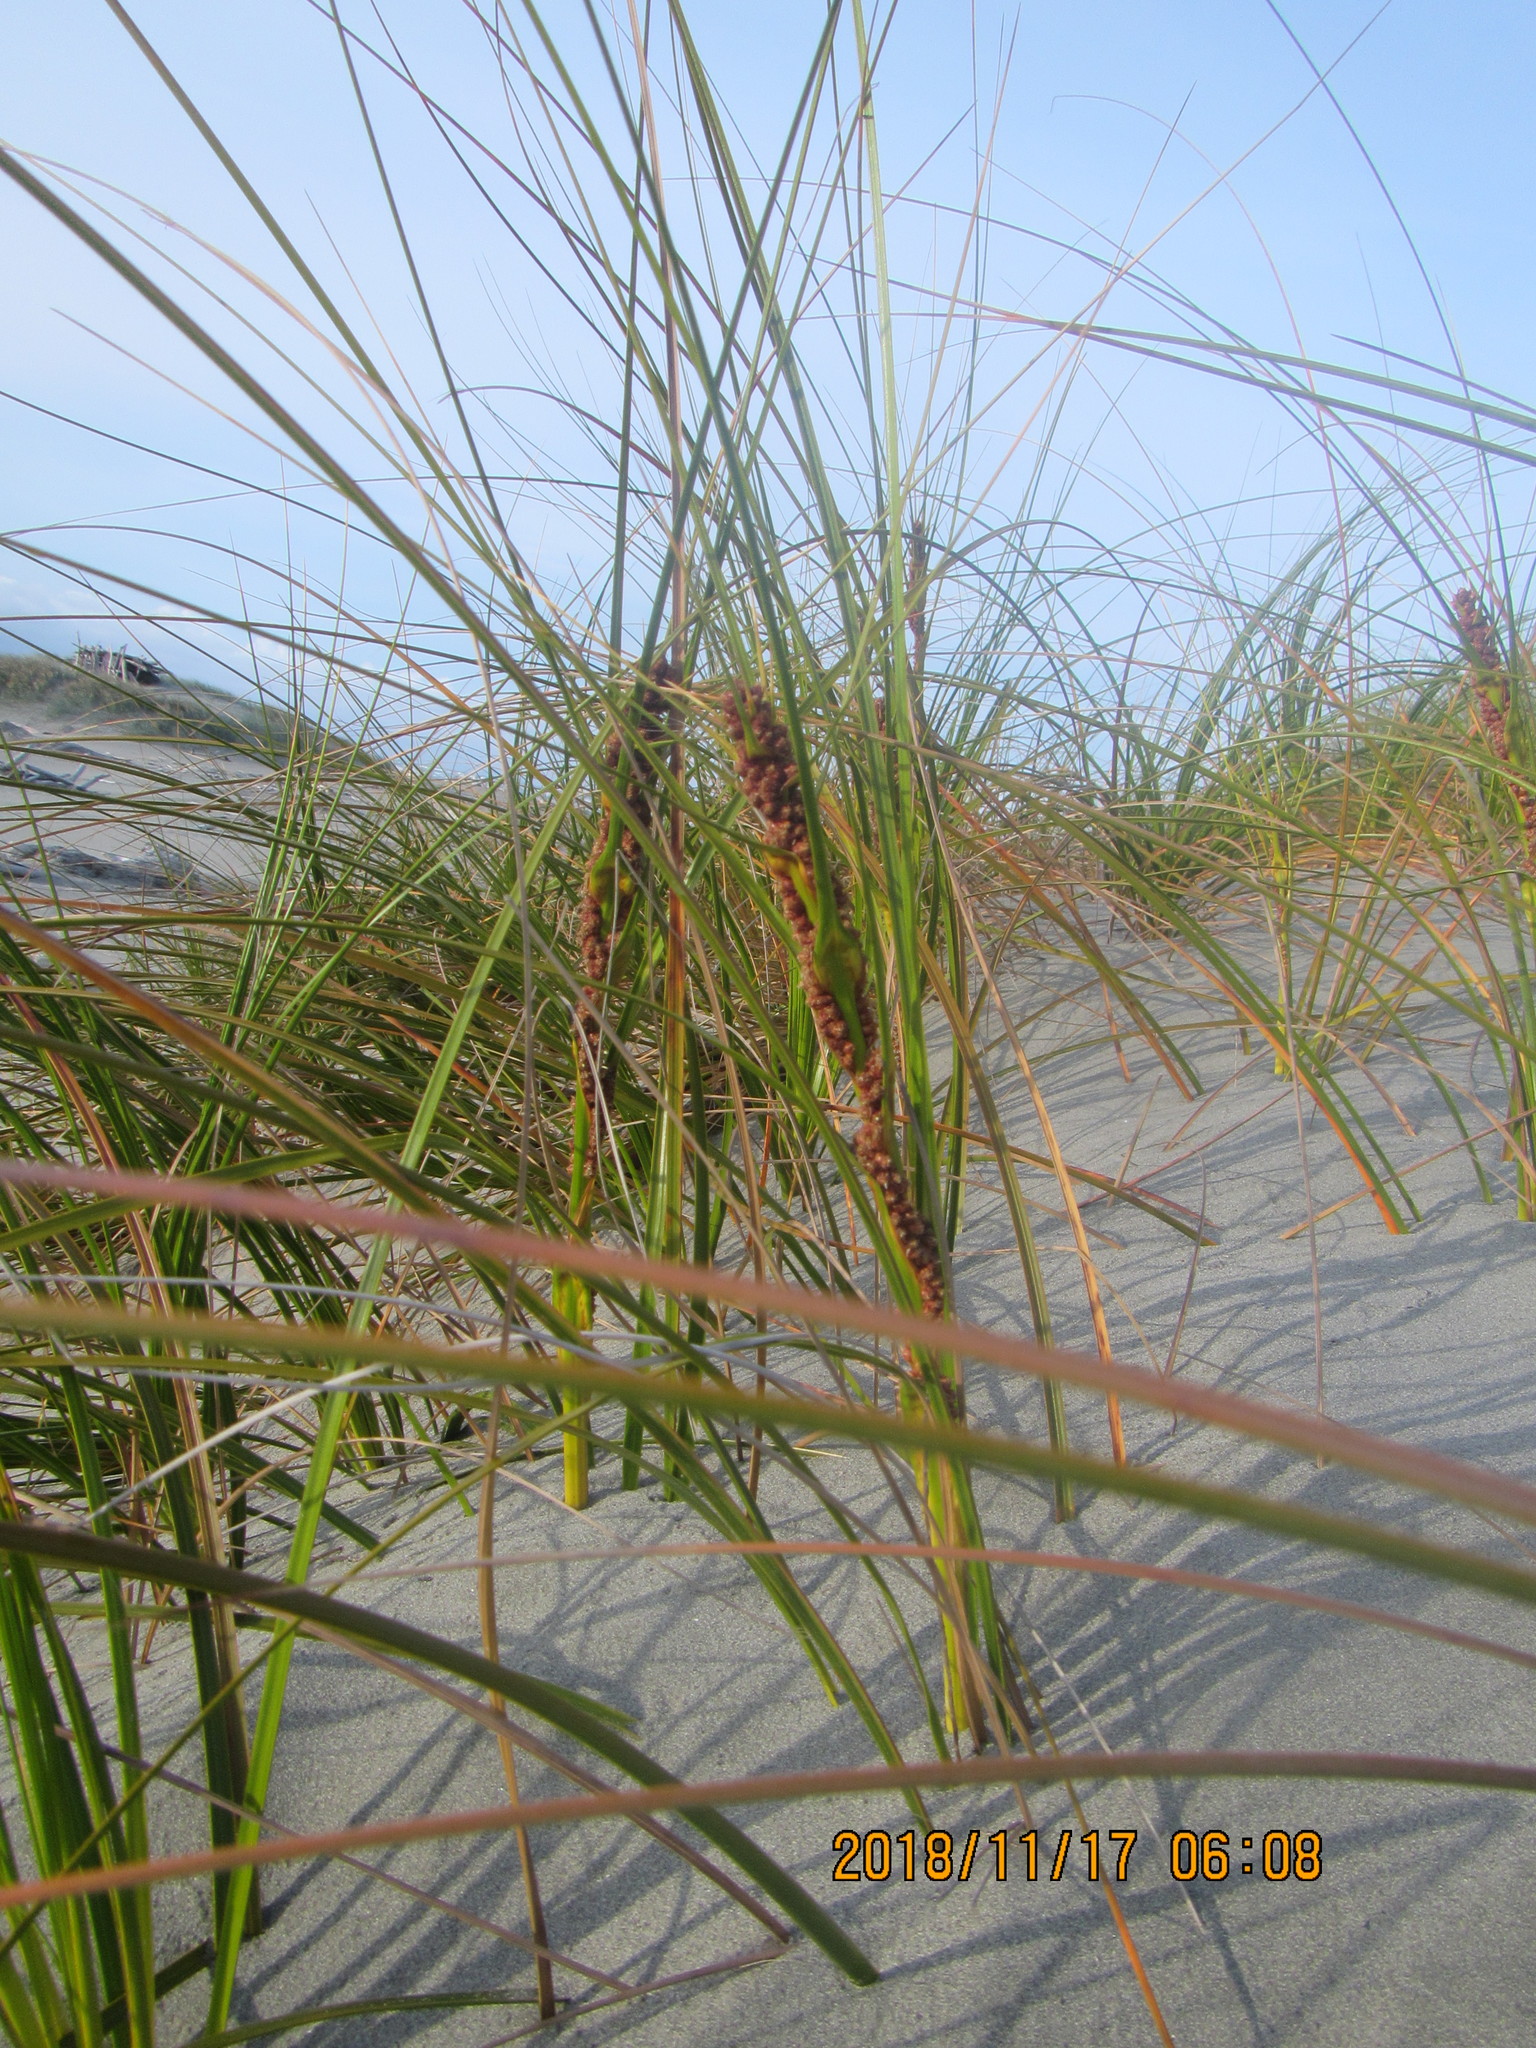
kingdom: Plantae
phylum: Tracheophyta
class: Liliopsida
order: Poales
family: Cyperaceae
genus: Ficinia
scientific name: Ficinia spiralis
